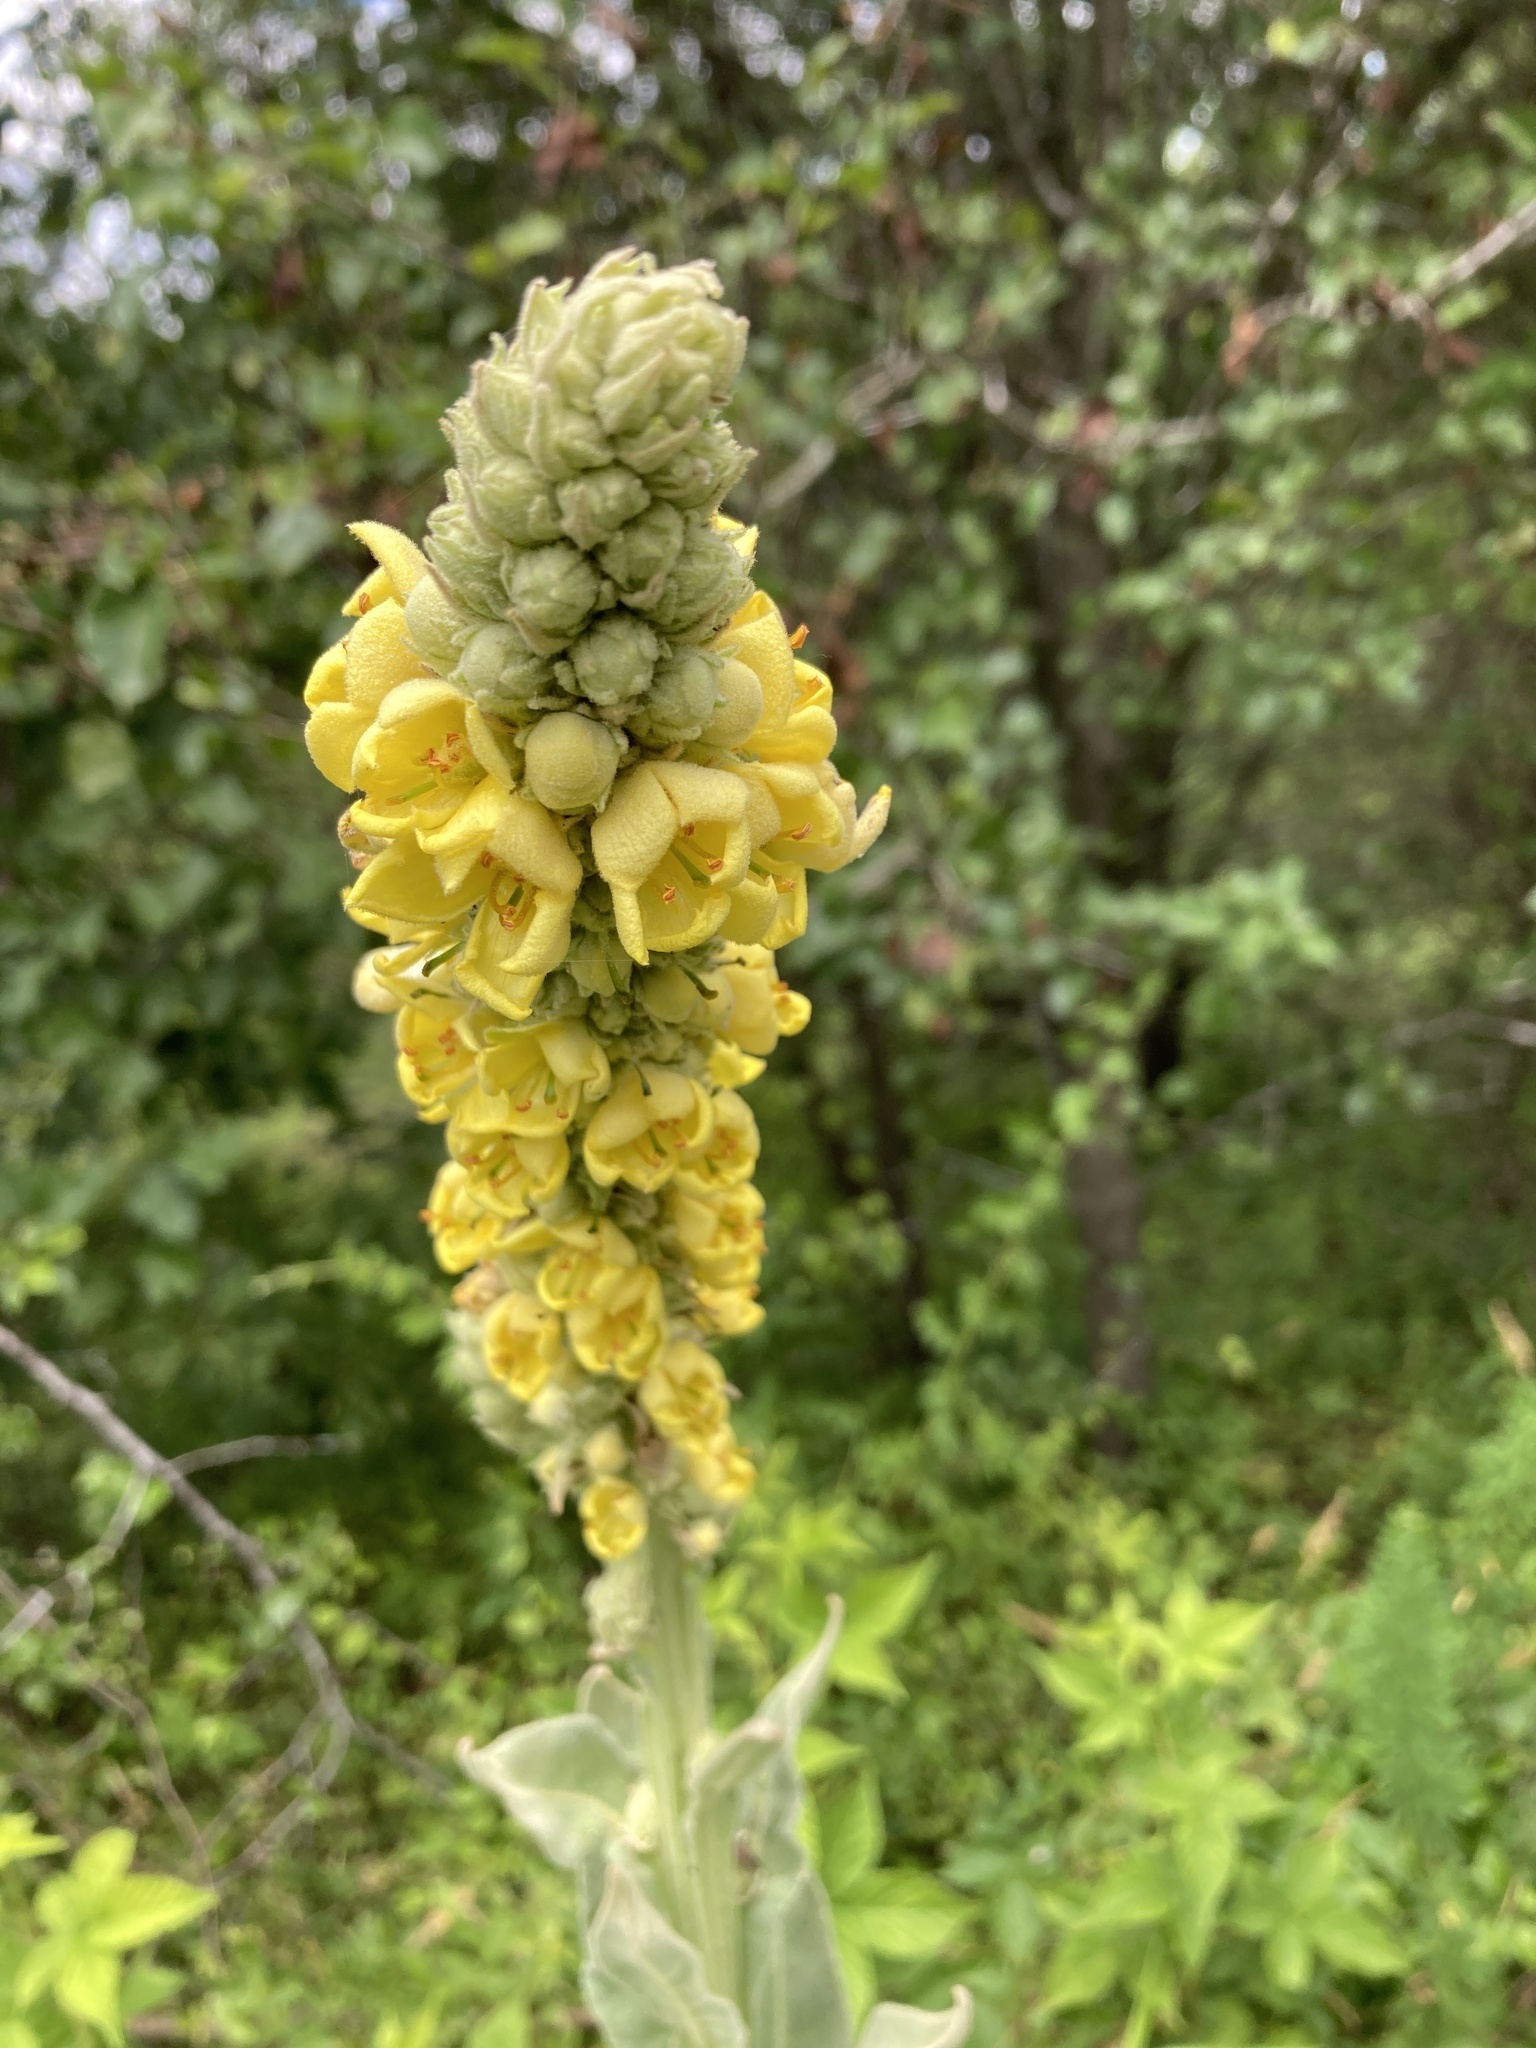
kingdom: Plantae
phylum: Tracheophyta
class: Magnoliopsida
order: Lamiales
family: Scrophulariaceae
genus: Verbascum
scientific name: Verbascum thapsus
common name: Common mullein
